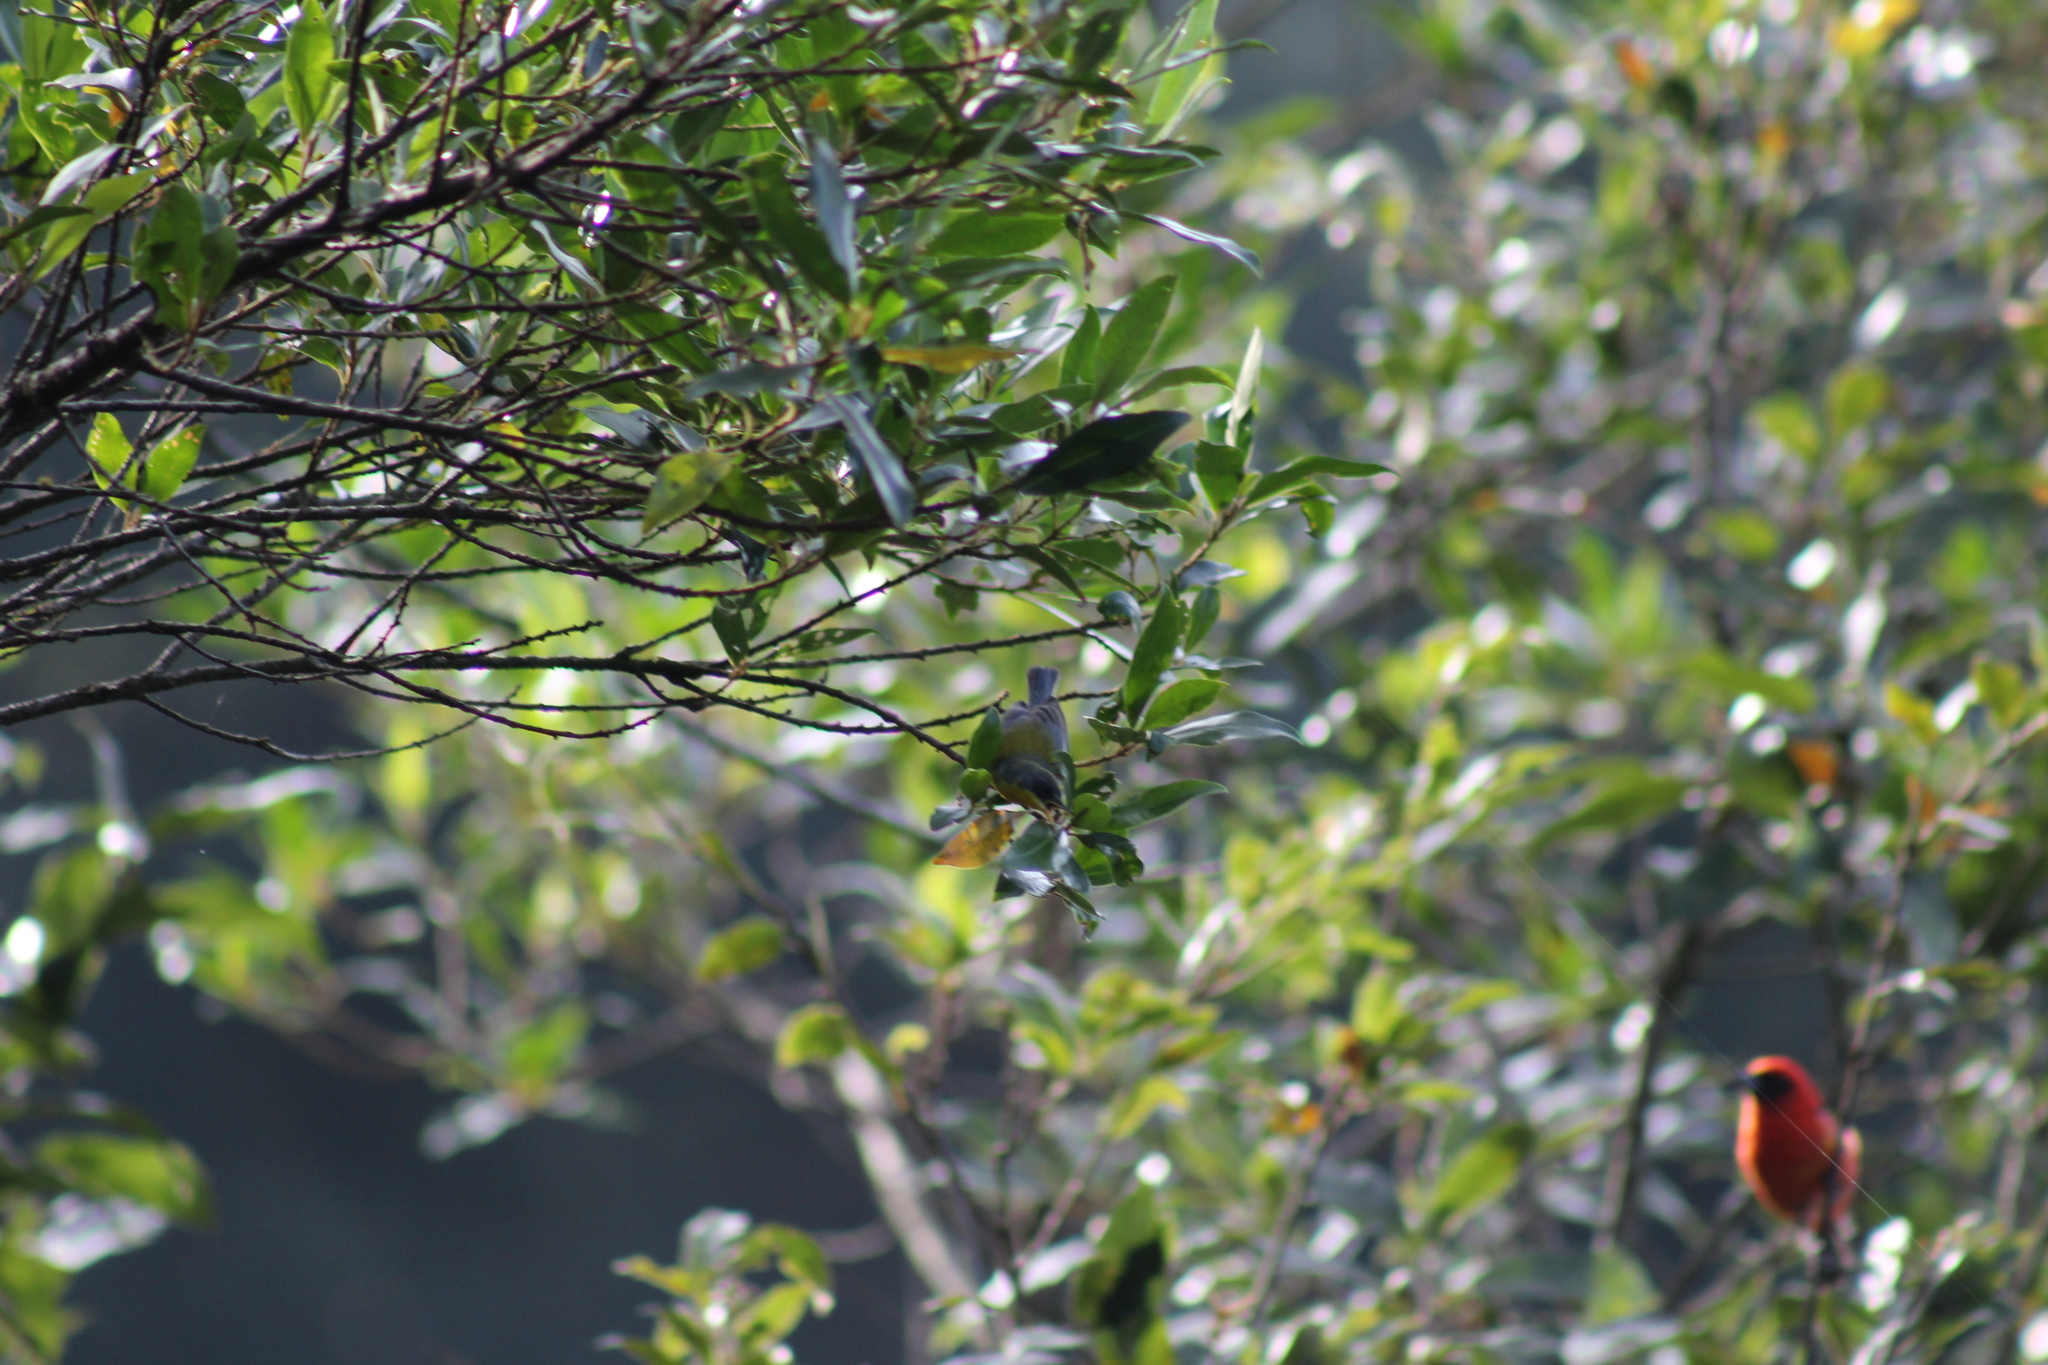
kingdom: Animalia
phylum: Chordata
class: Aves
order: Passeriformes
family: Parulidae
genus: Setophaga
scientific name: Setophaga pitiayumi
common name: Tropical parula
